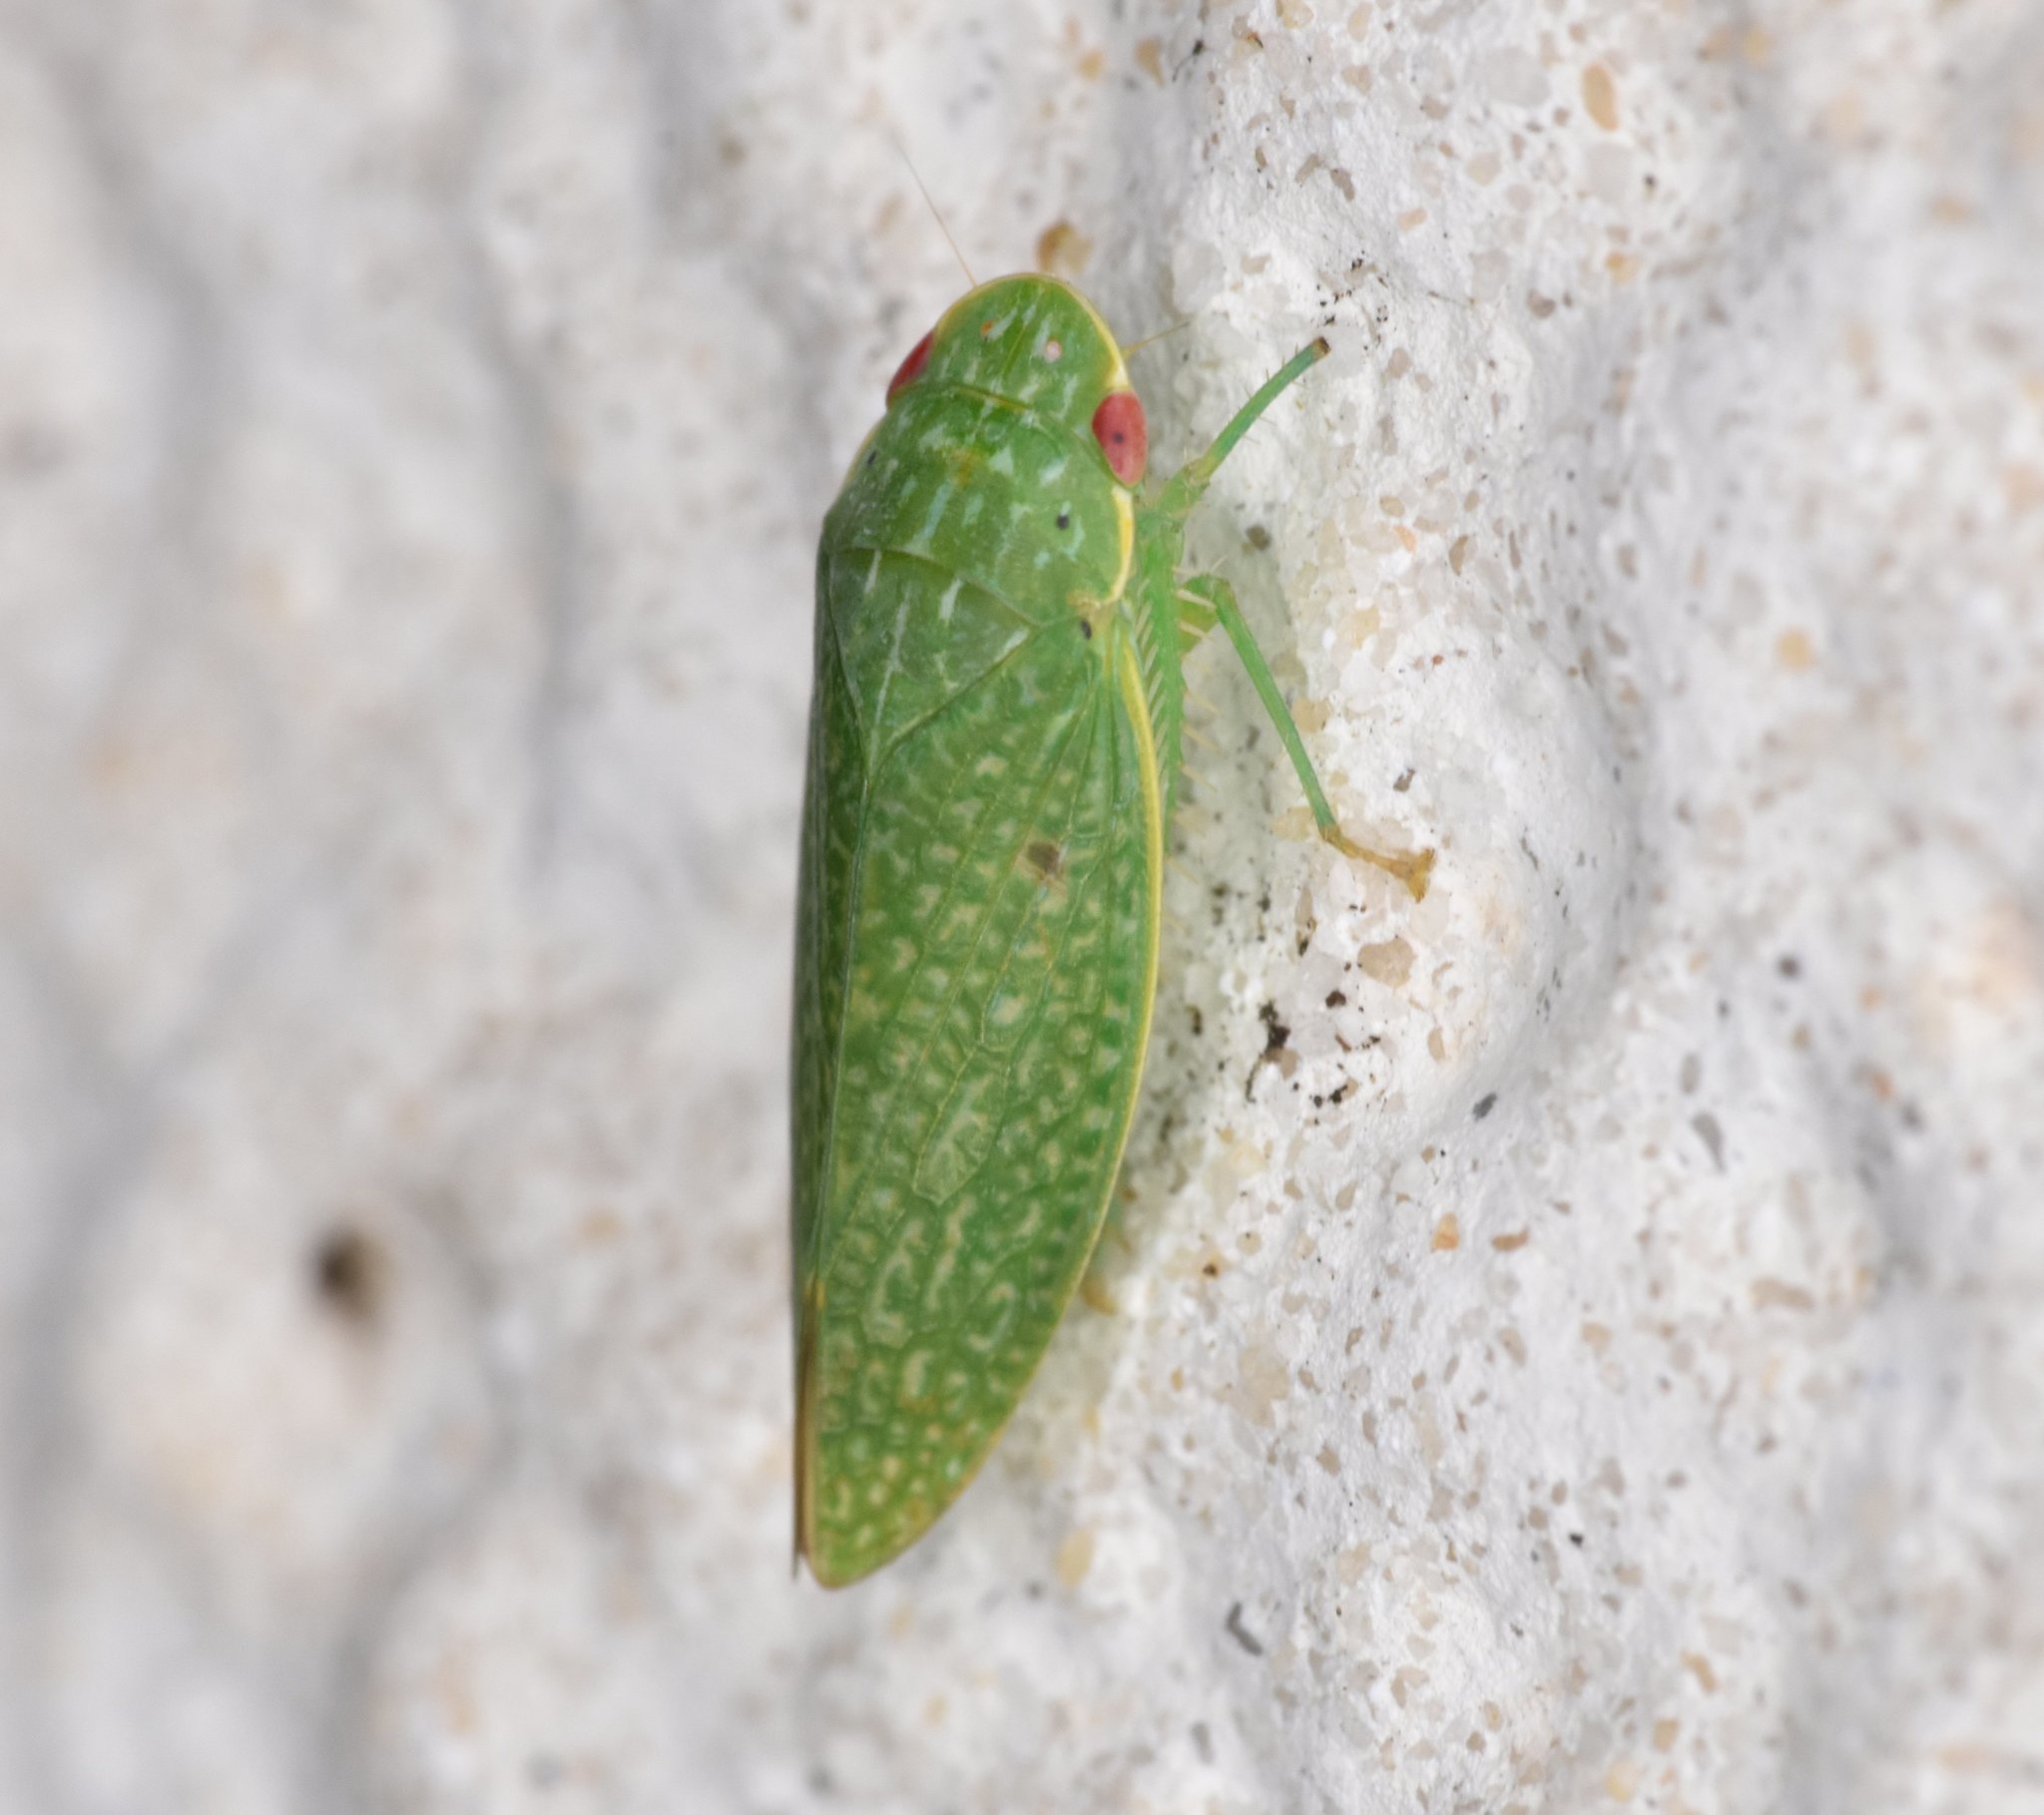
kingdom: Animalia
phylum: Arthropoda
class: Insecta
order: Hemiptera
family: Cicadellidae
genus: Rugosana
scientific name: Rugosana querci
